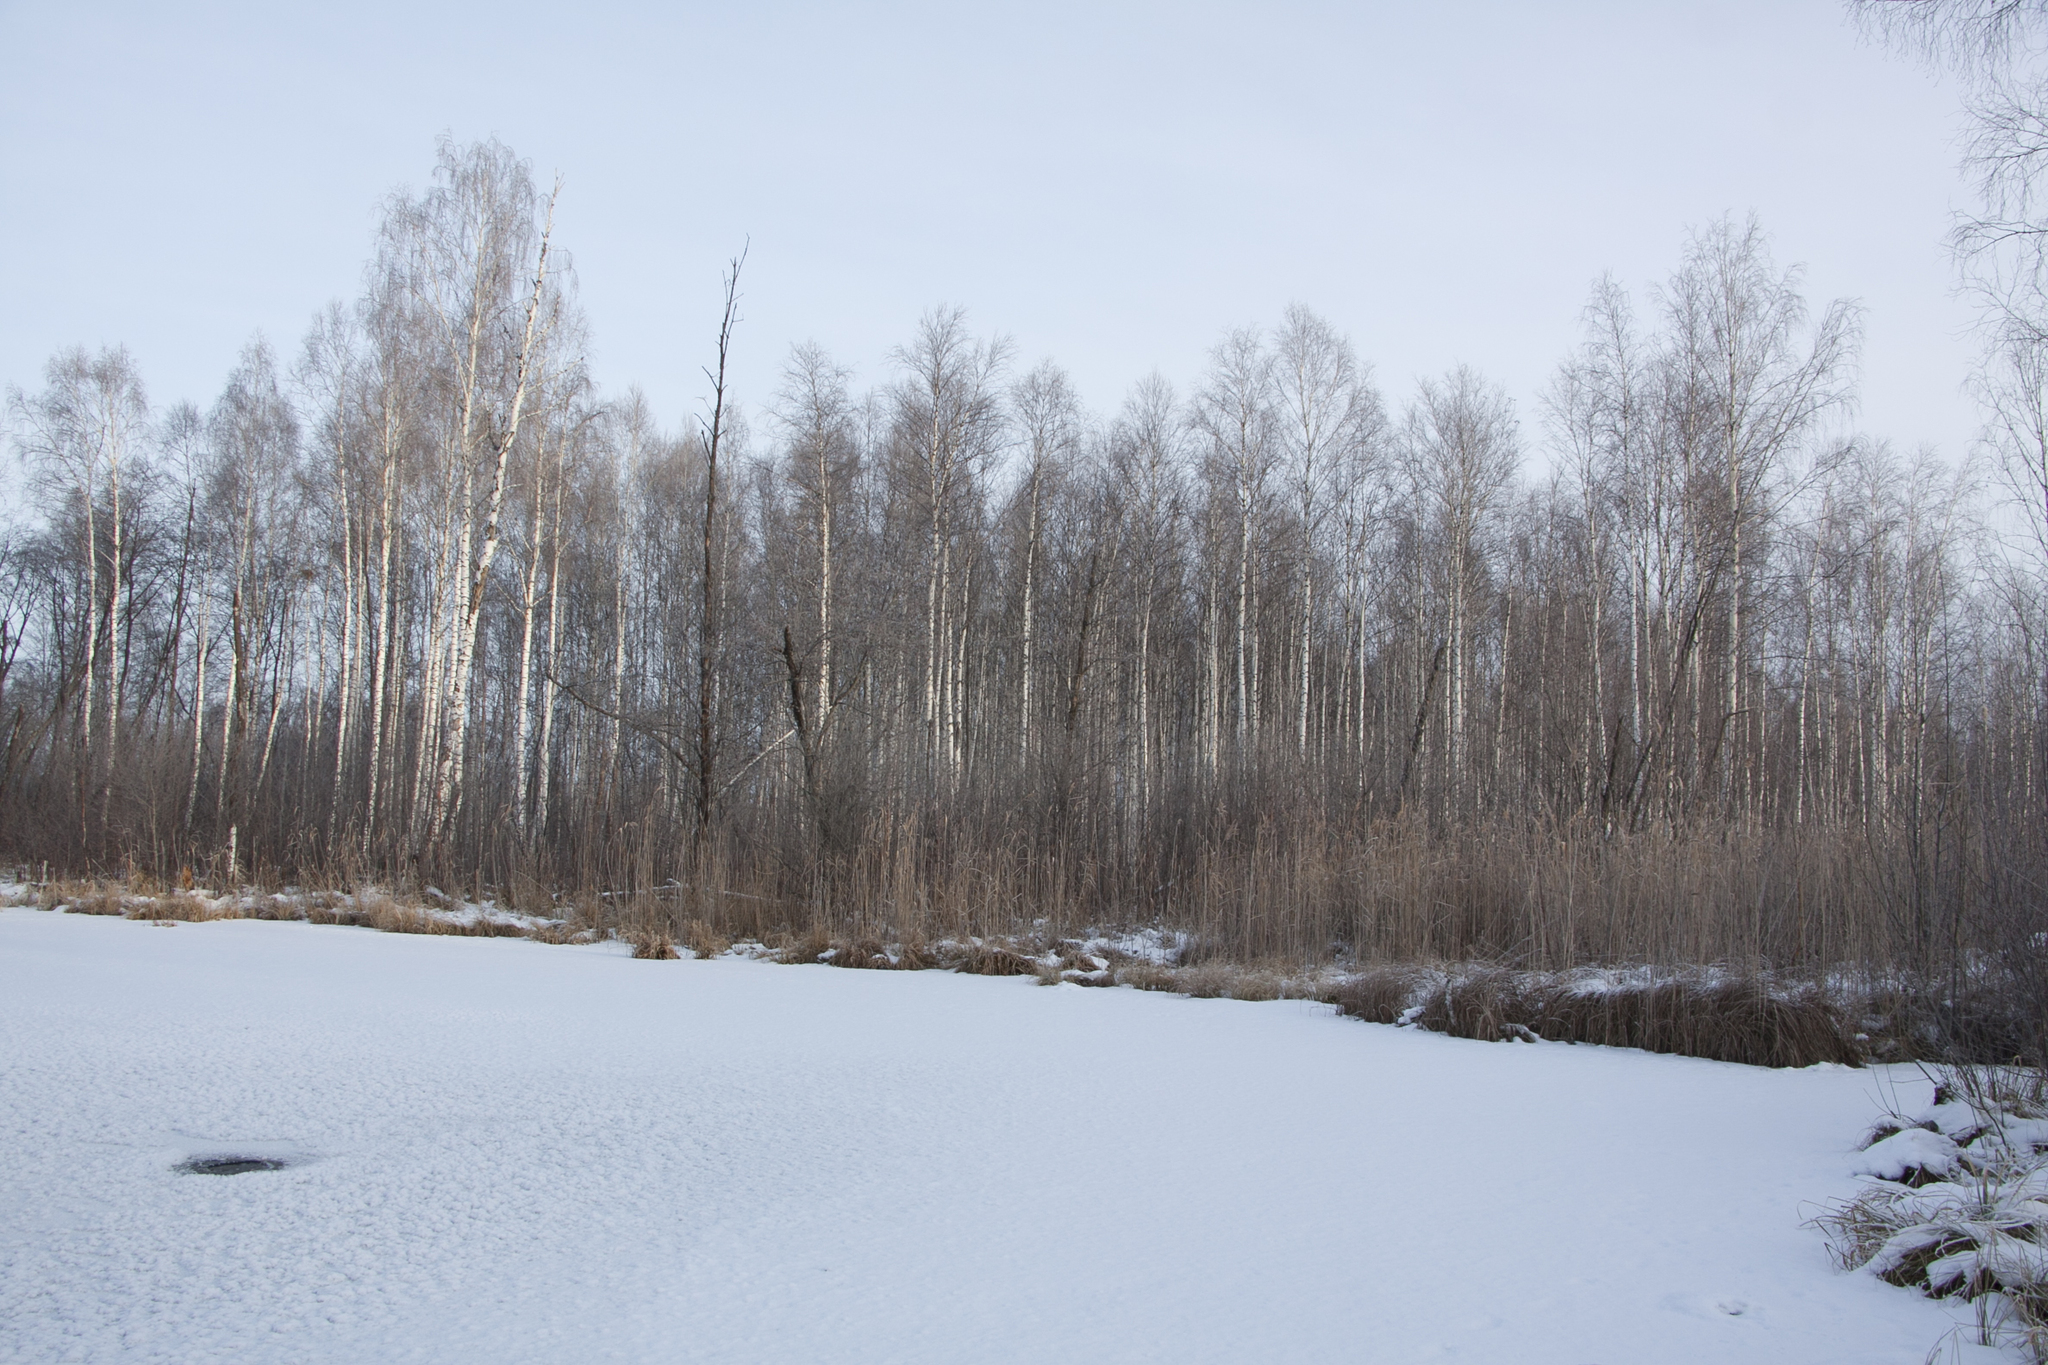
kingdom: Plantae
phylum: Tracheophyta
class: Magnoliopsida
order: Fagales
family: Betulaceae
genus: Betula
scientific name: Betula pendula
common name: Silver birch
